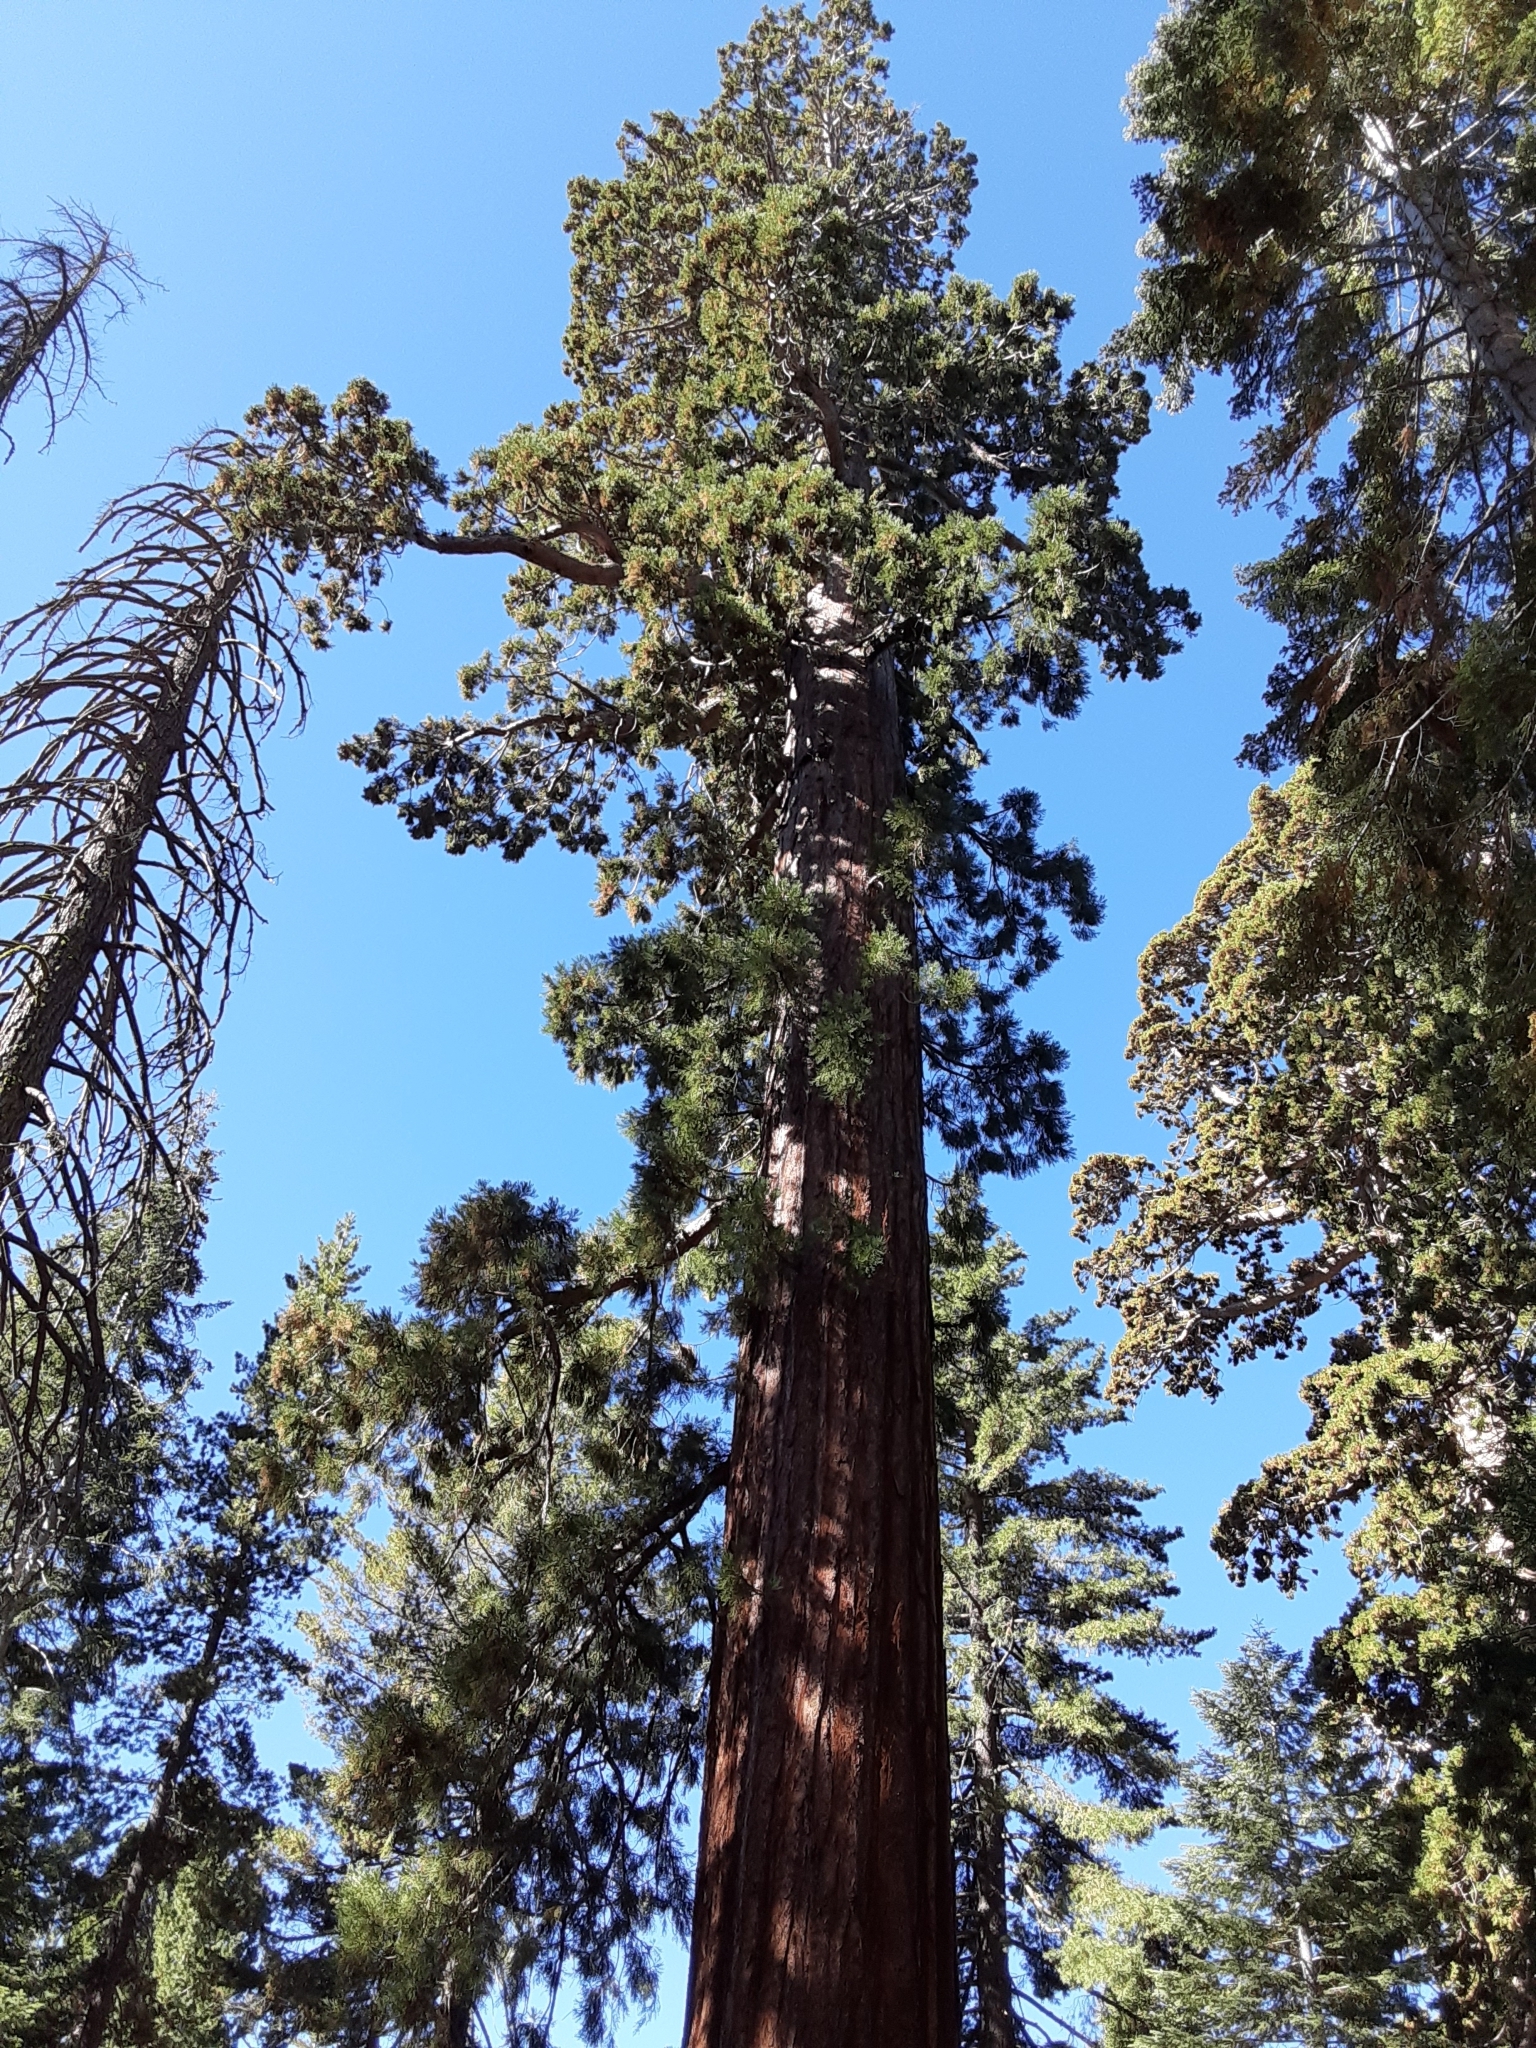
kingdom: Plantae
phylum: Tracheophyta
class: Pinopsida
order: Pinales
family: Cupressaceae
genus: Sequoiadendron
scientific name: Sequoiadendron giganteum
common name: Wellingtonia
